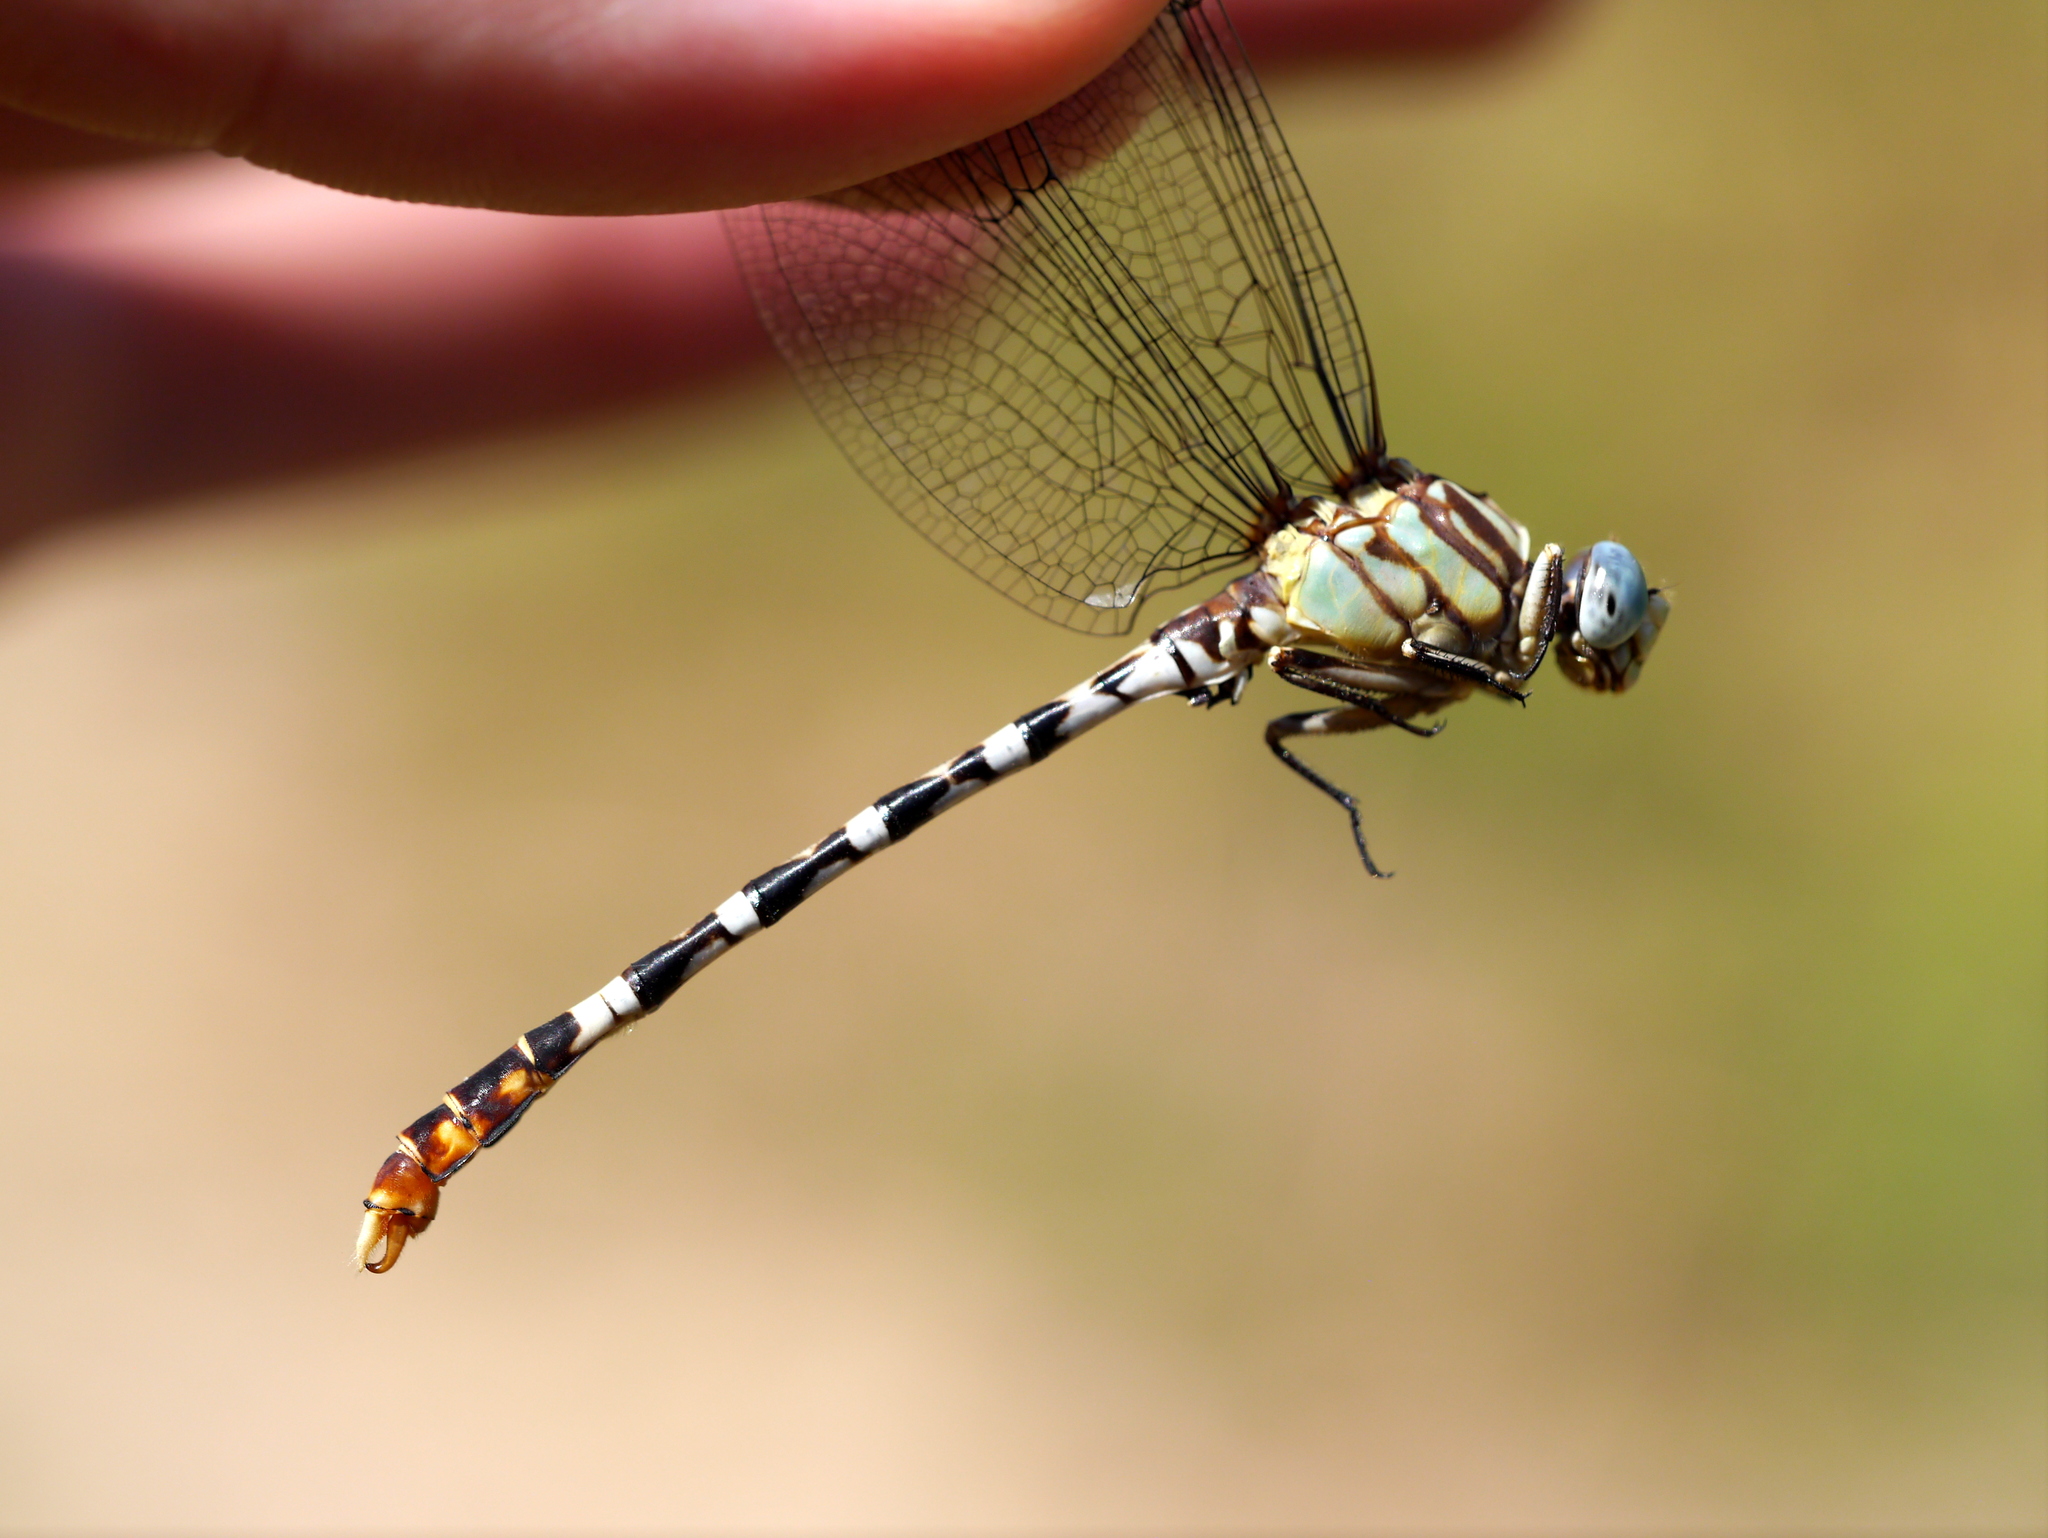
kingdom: Animalia
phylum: Arthropoda
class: Insecta
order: Odonata
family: Gomphidae
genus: Erpetogomphus
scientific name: Erpetogomphus lampropeltis
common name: Serpent ringtail
